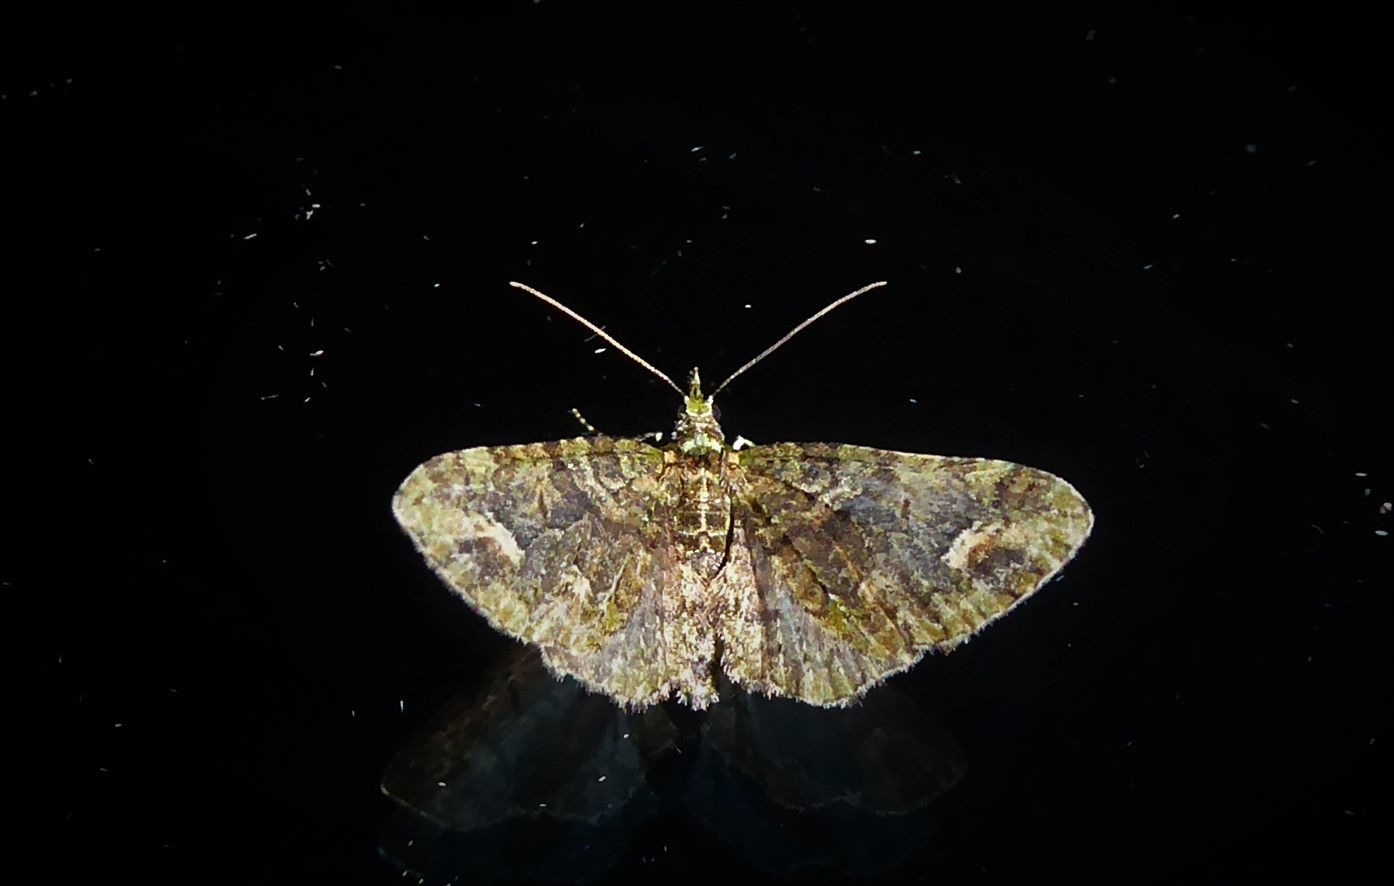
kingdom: Animalia
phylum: Arthropoda
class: Insecta
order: Lepidoptera
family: Geometridae
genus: Idaea
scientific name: Idaea mutanda
